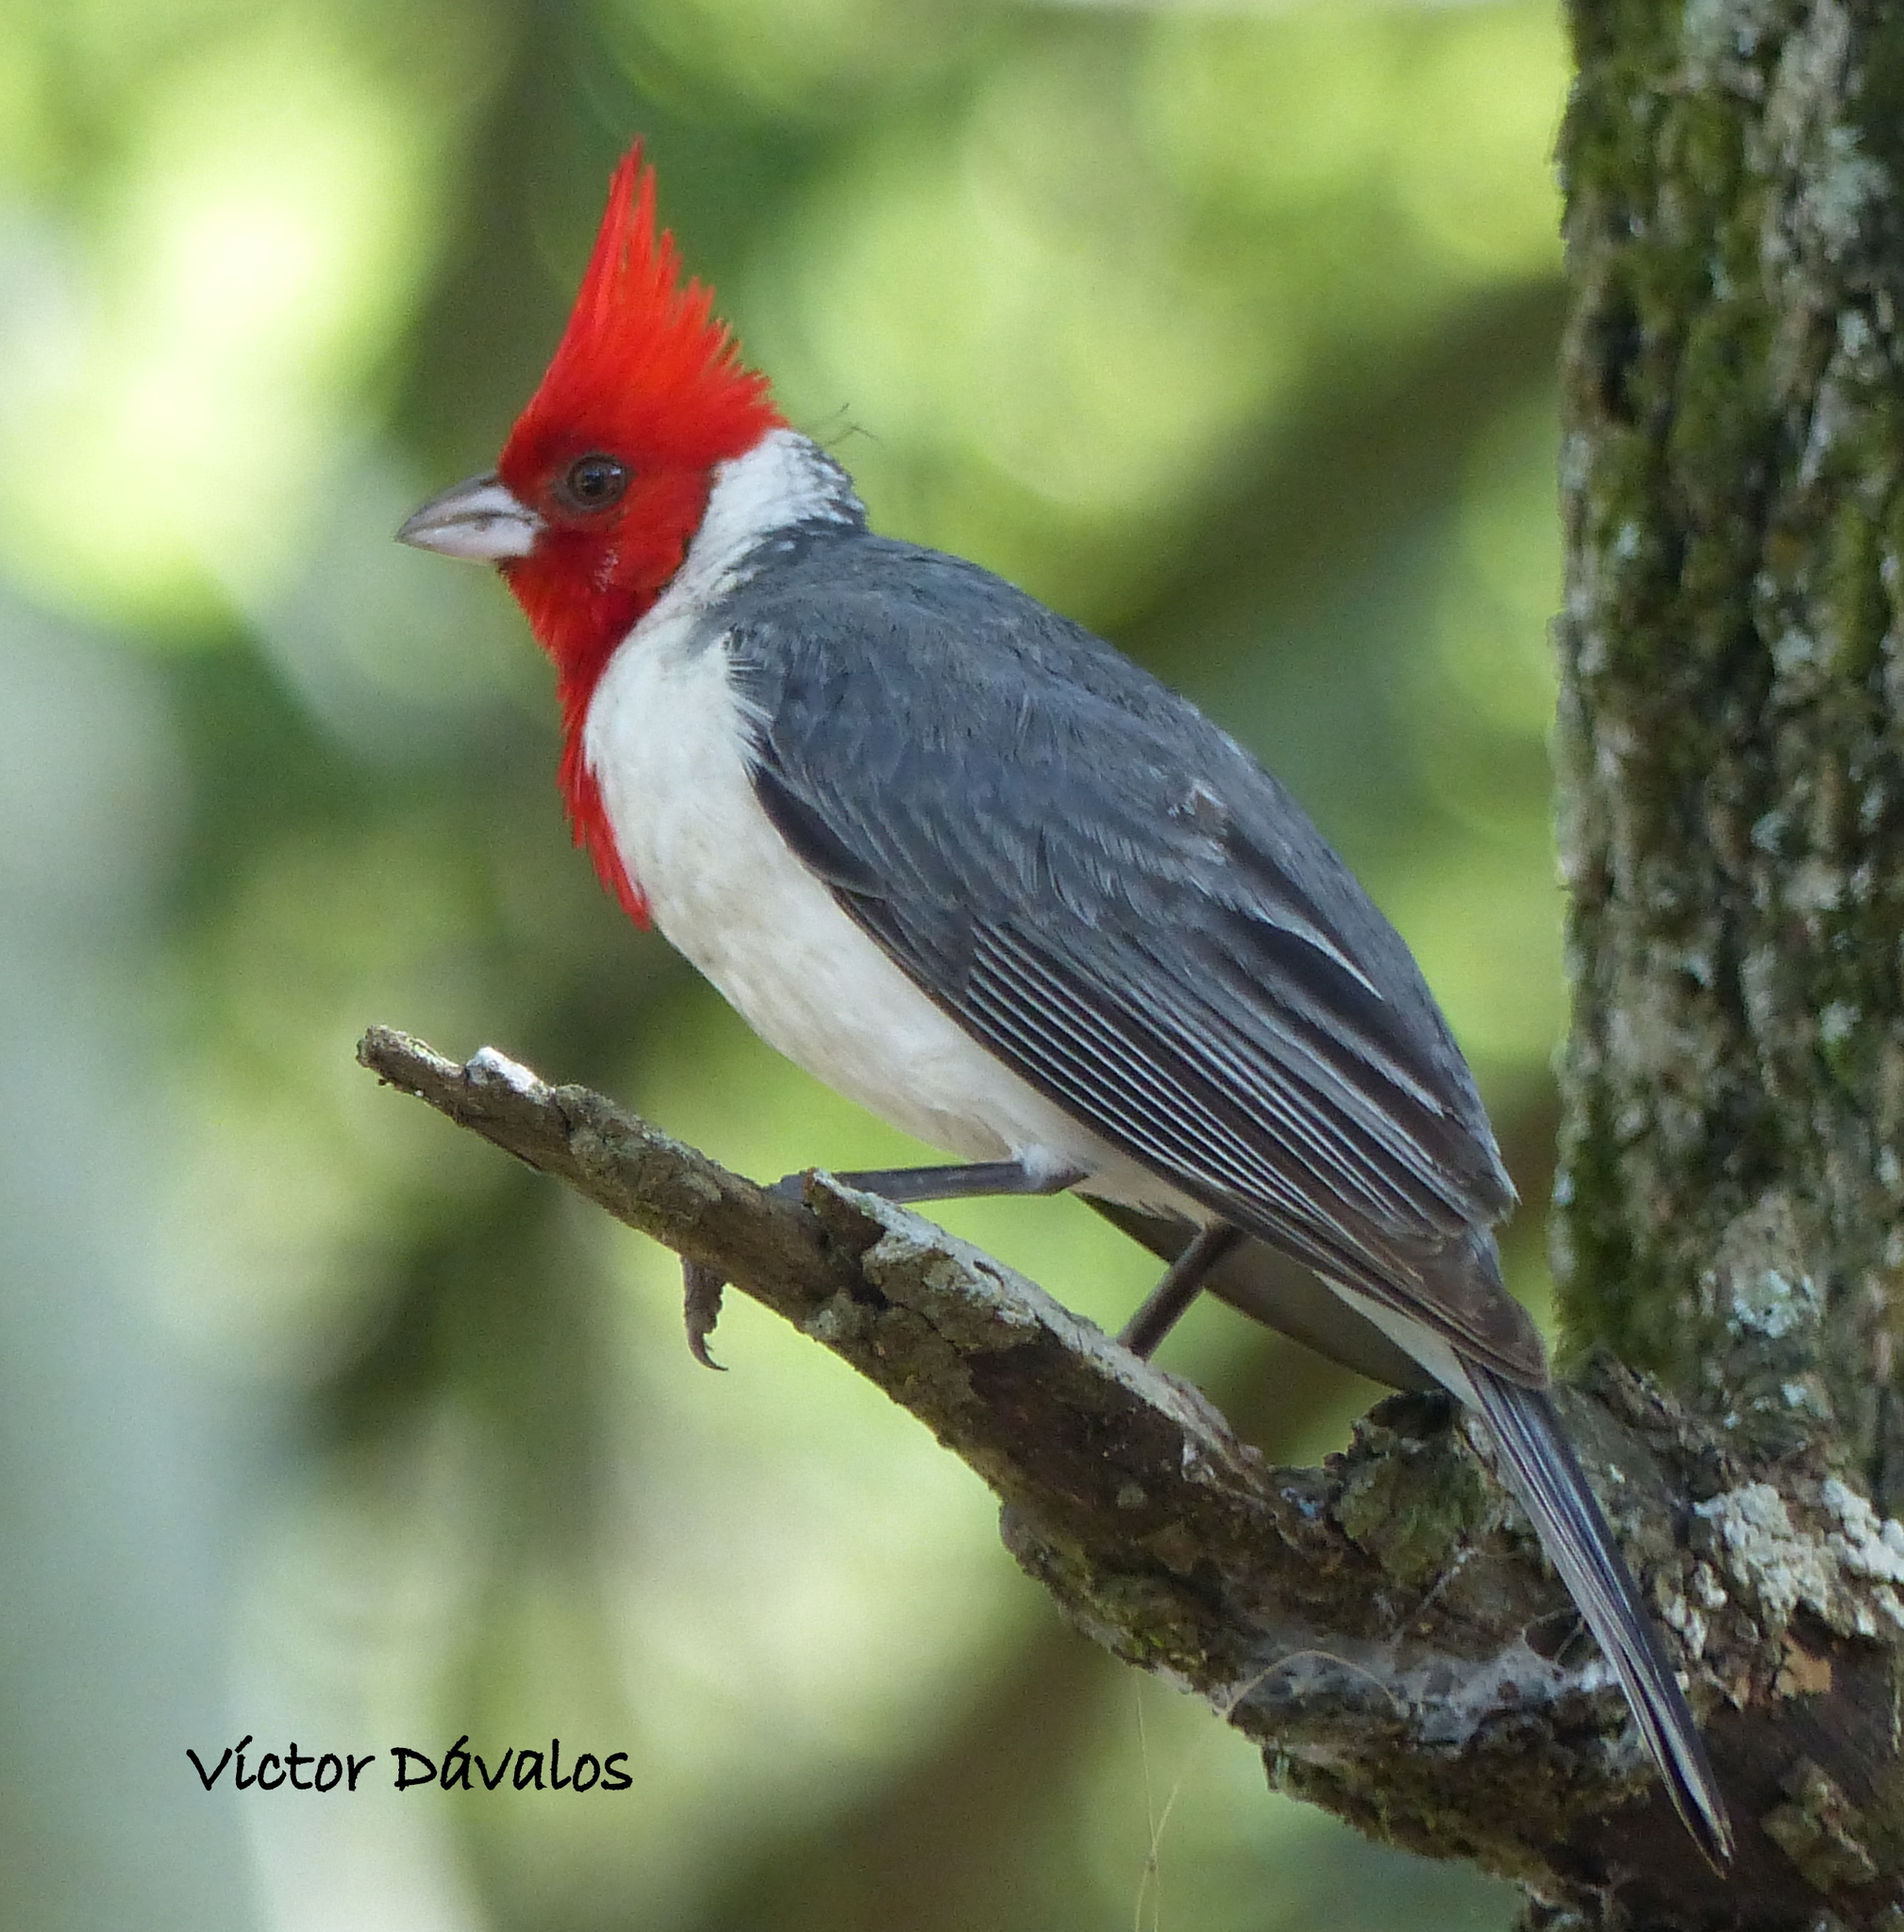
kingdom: Animalia
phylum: Chordata
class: Aves
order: Passeriformes
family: Thraupidae
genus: Paroaria
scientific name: Paroaria coronata
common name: Red-crested cardinal
